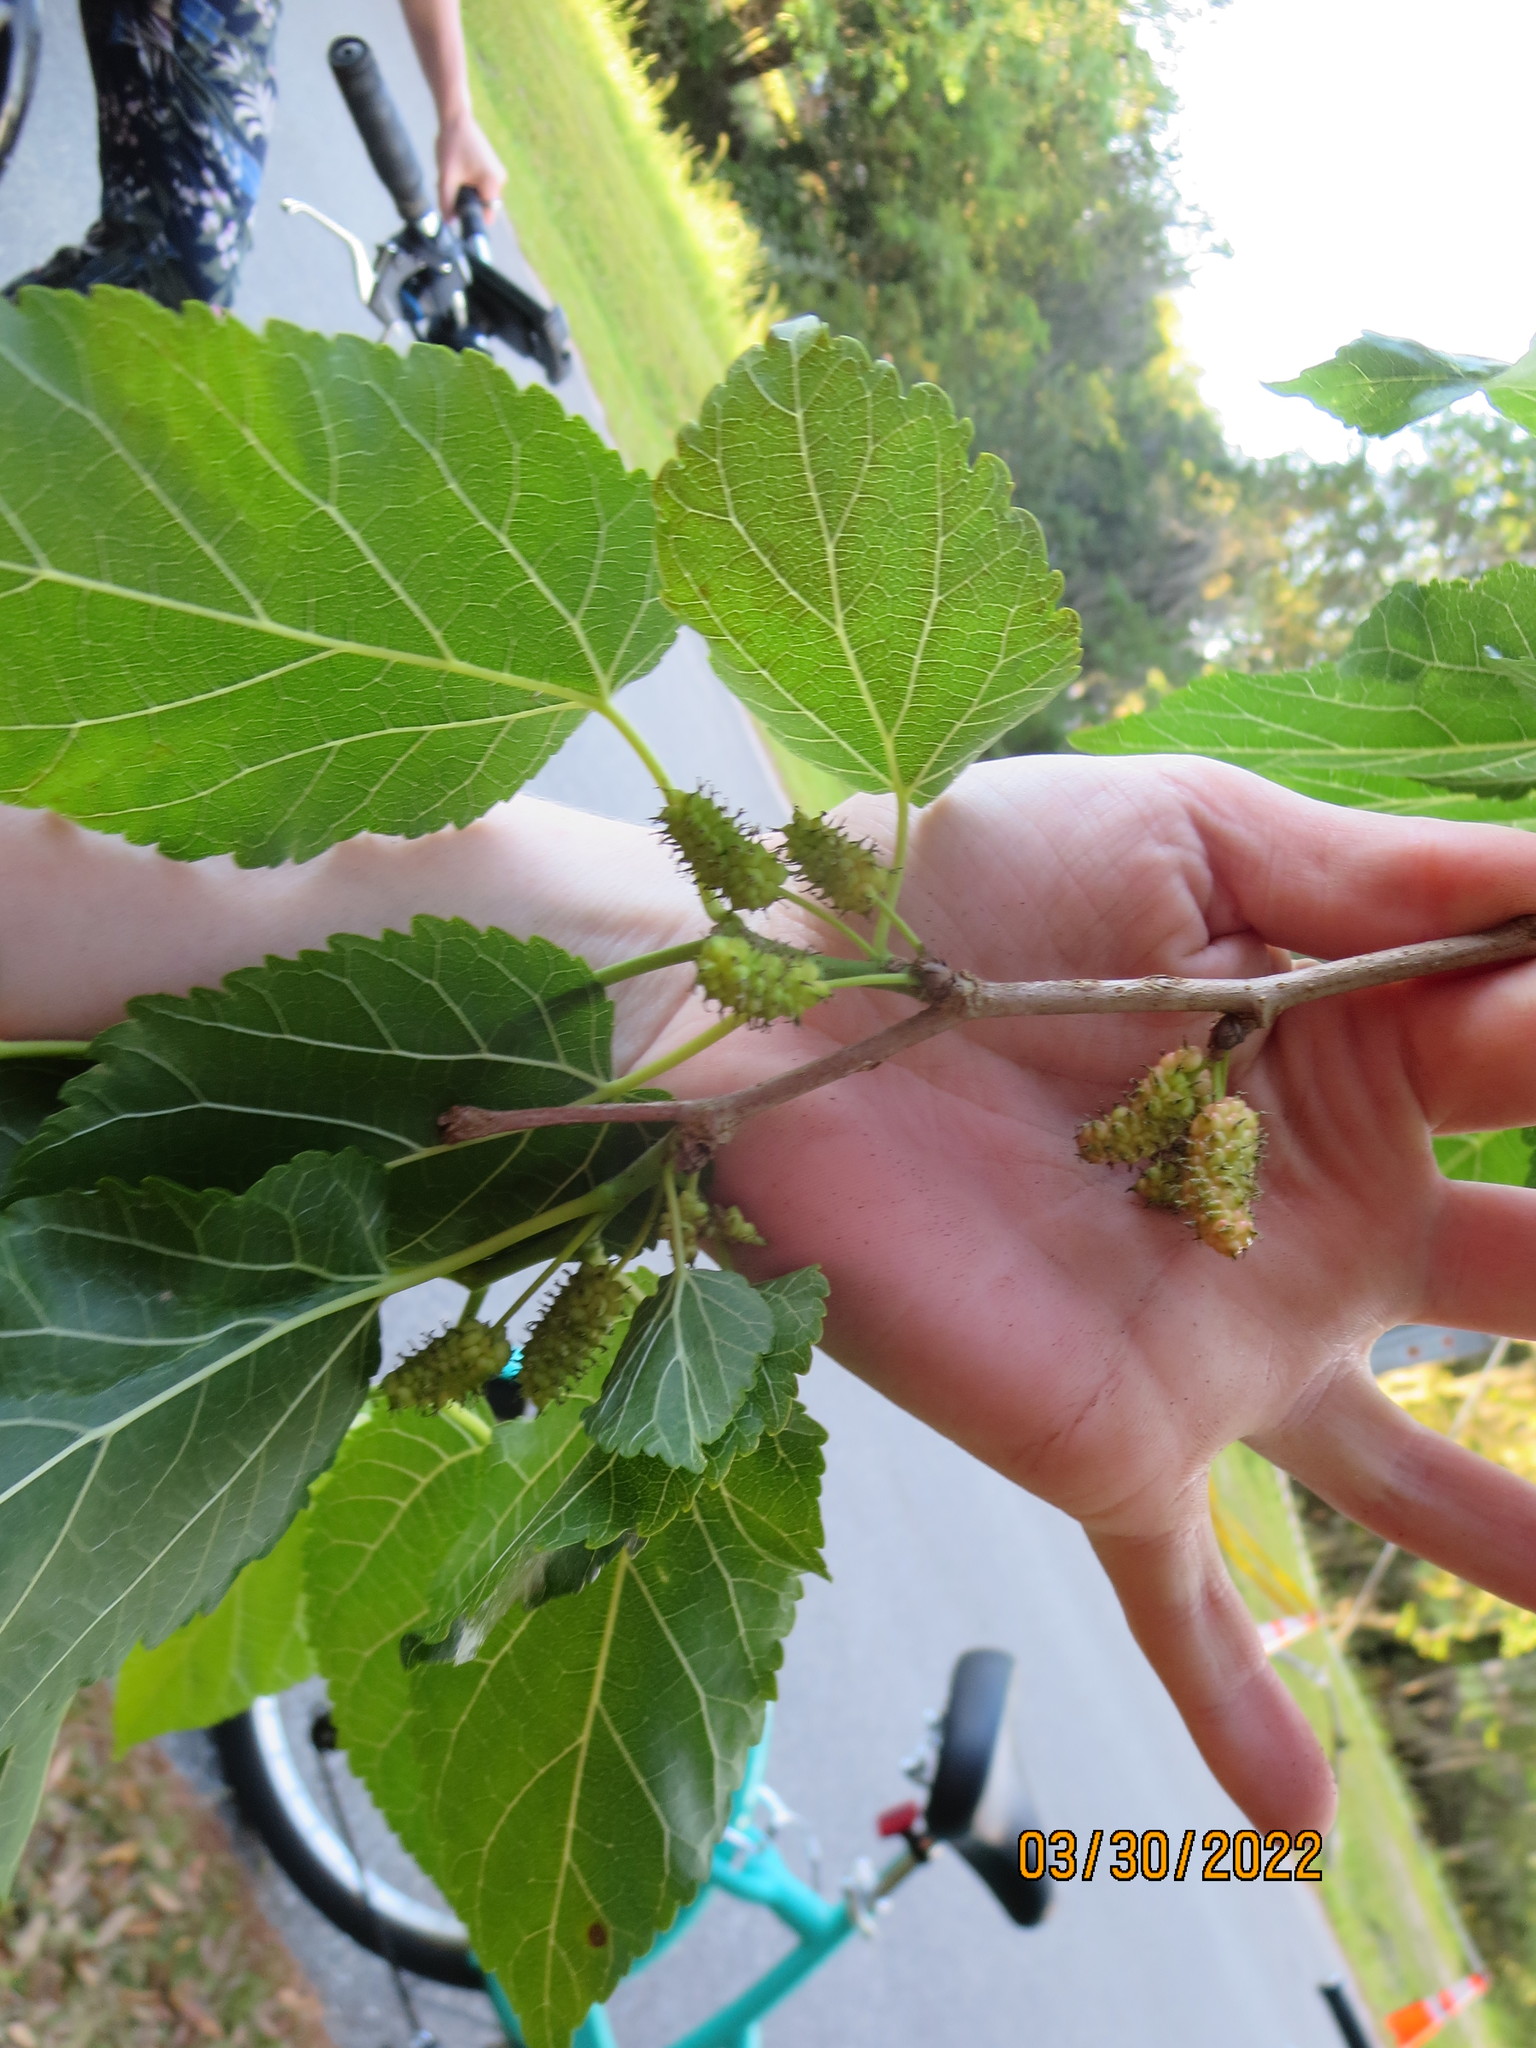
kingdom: Plantae
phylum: Tracheophyta
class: Magnoliopsida
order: Rosales
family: Moraceae
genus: Morus
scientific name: Morus alba
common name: White mulberry
